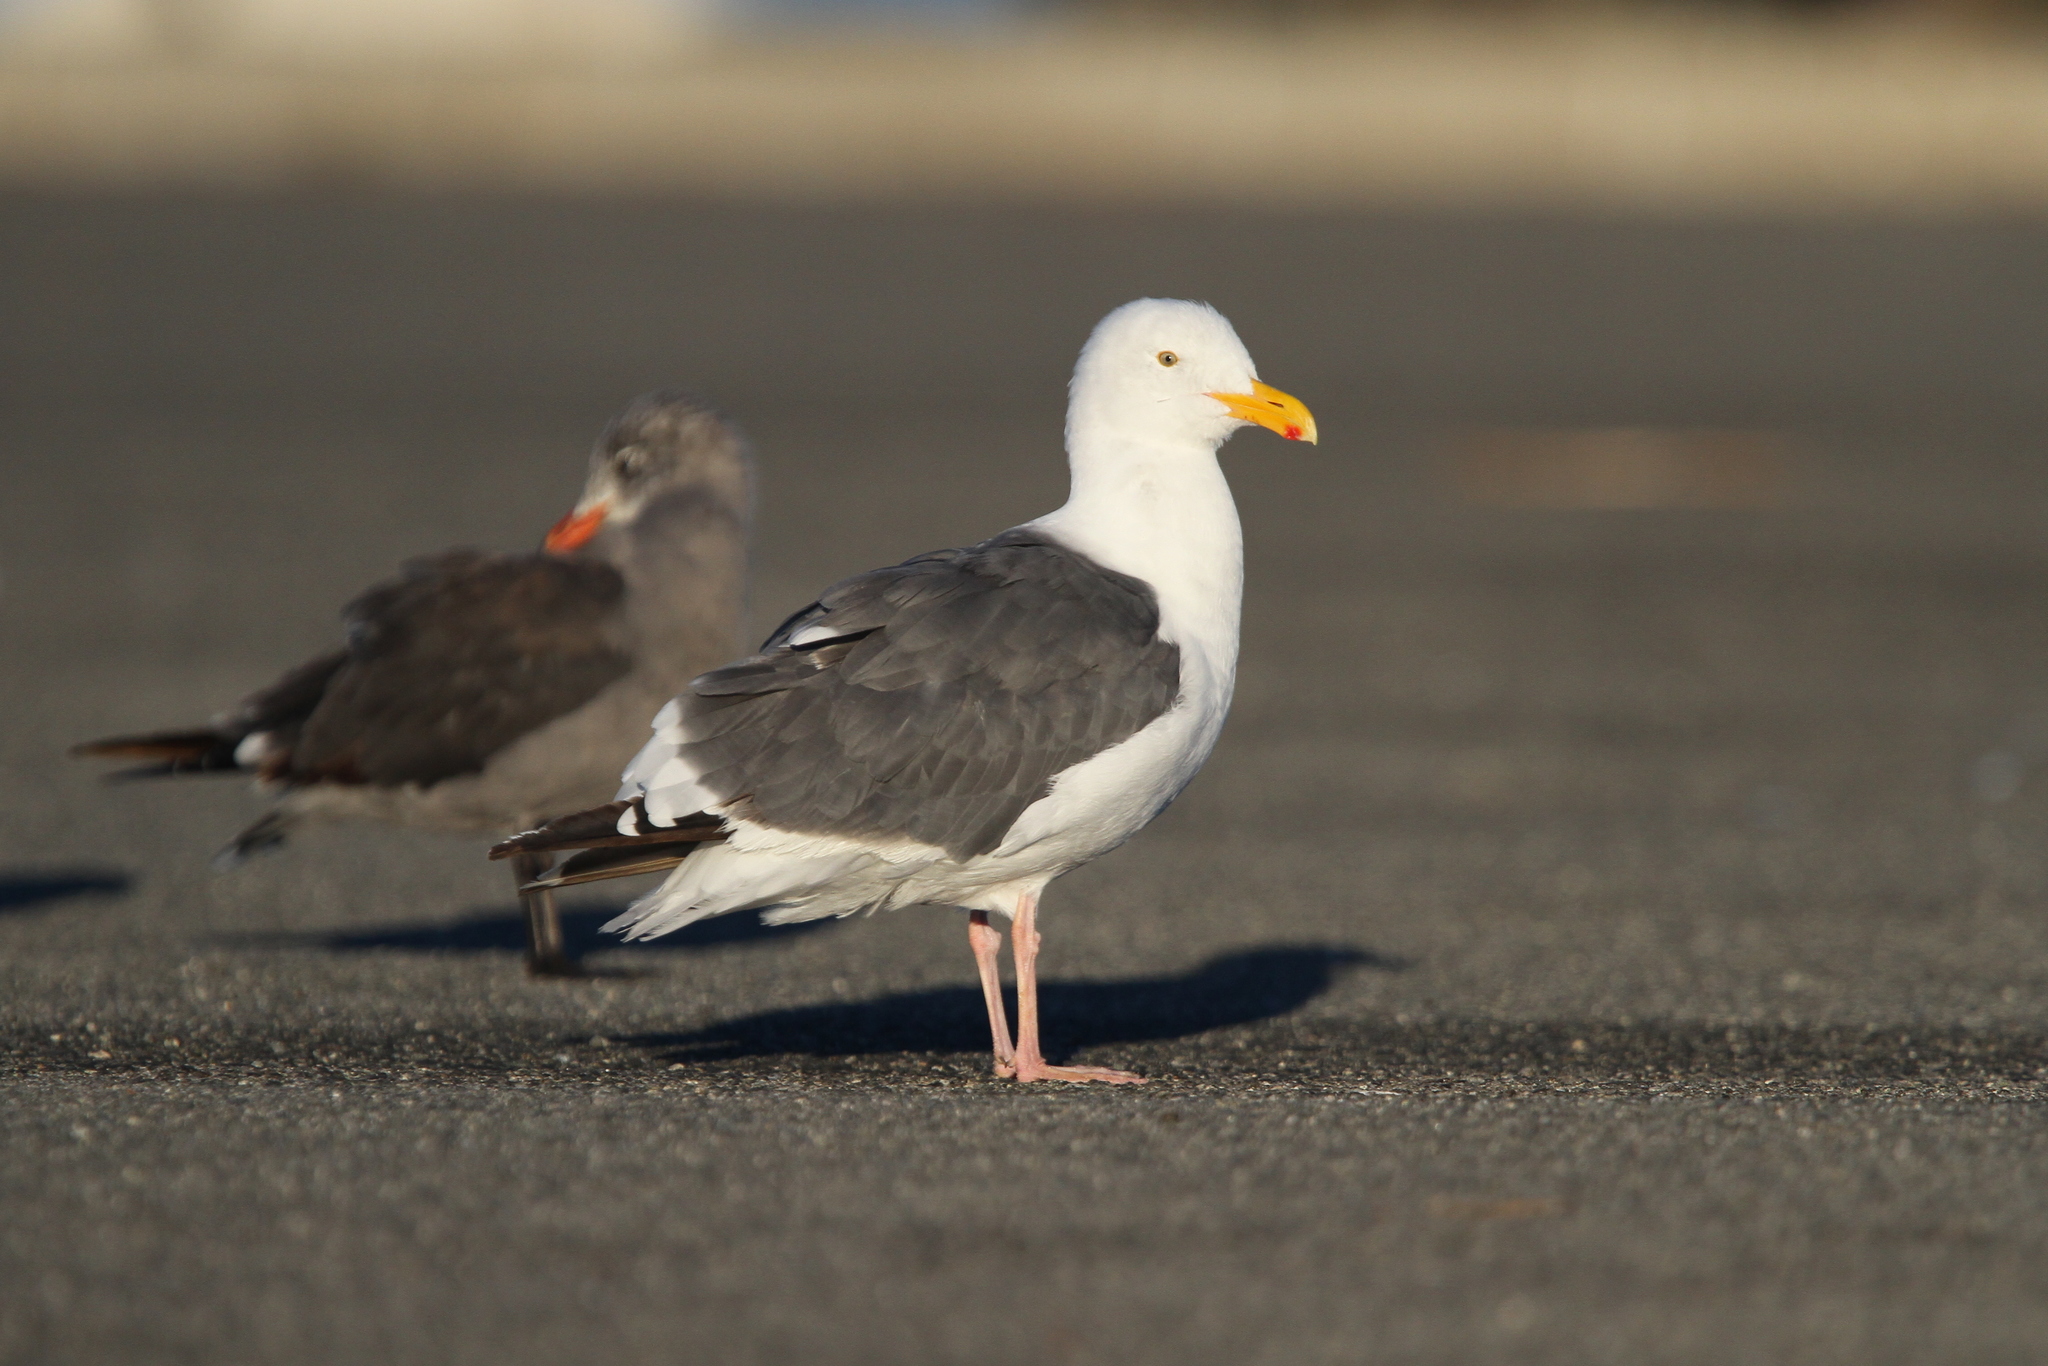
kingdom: Animalia
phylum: Chordata
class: Aves
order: Charadriiformes
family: Laridae
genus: Larus
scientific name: Larus occidentalis
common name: Western gull
